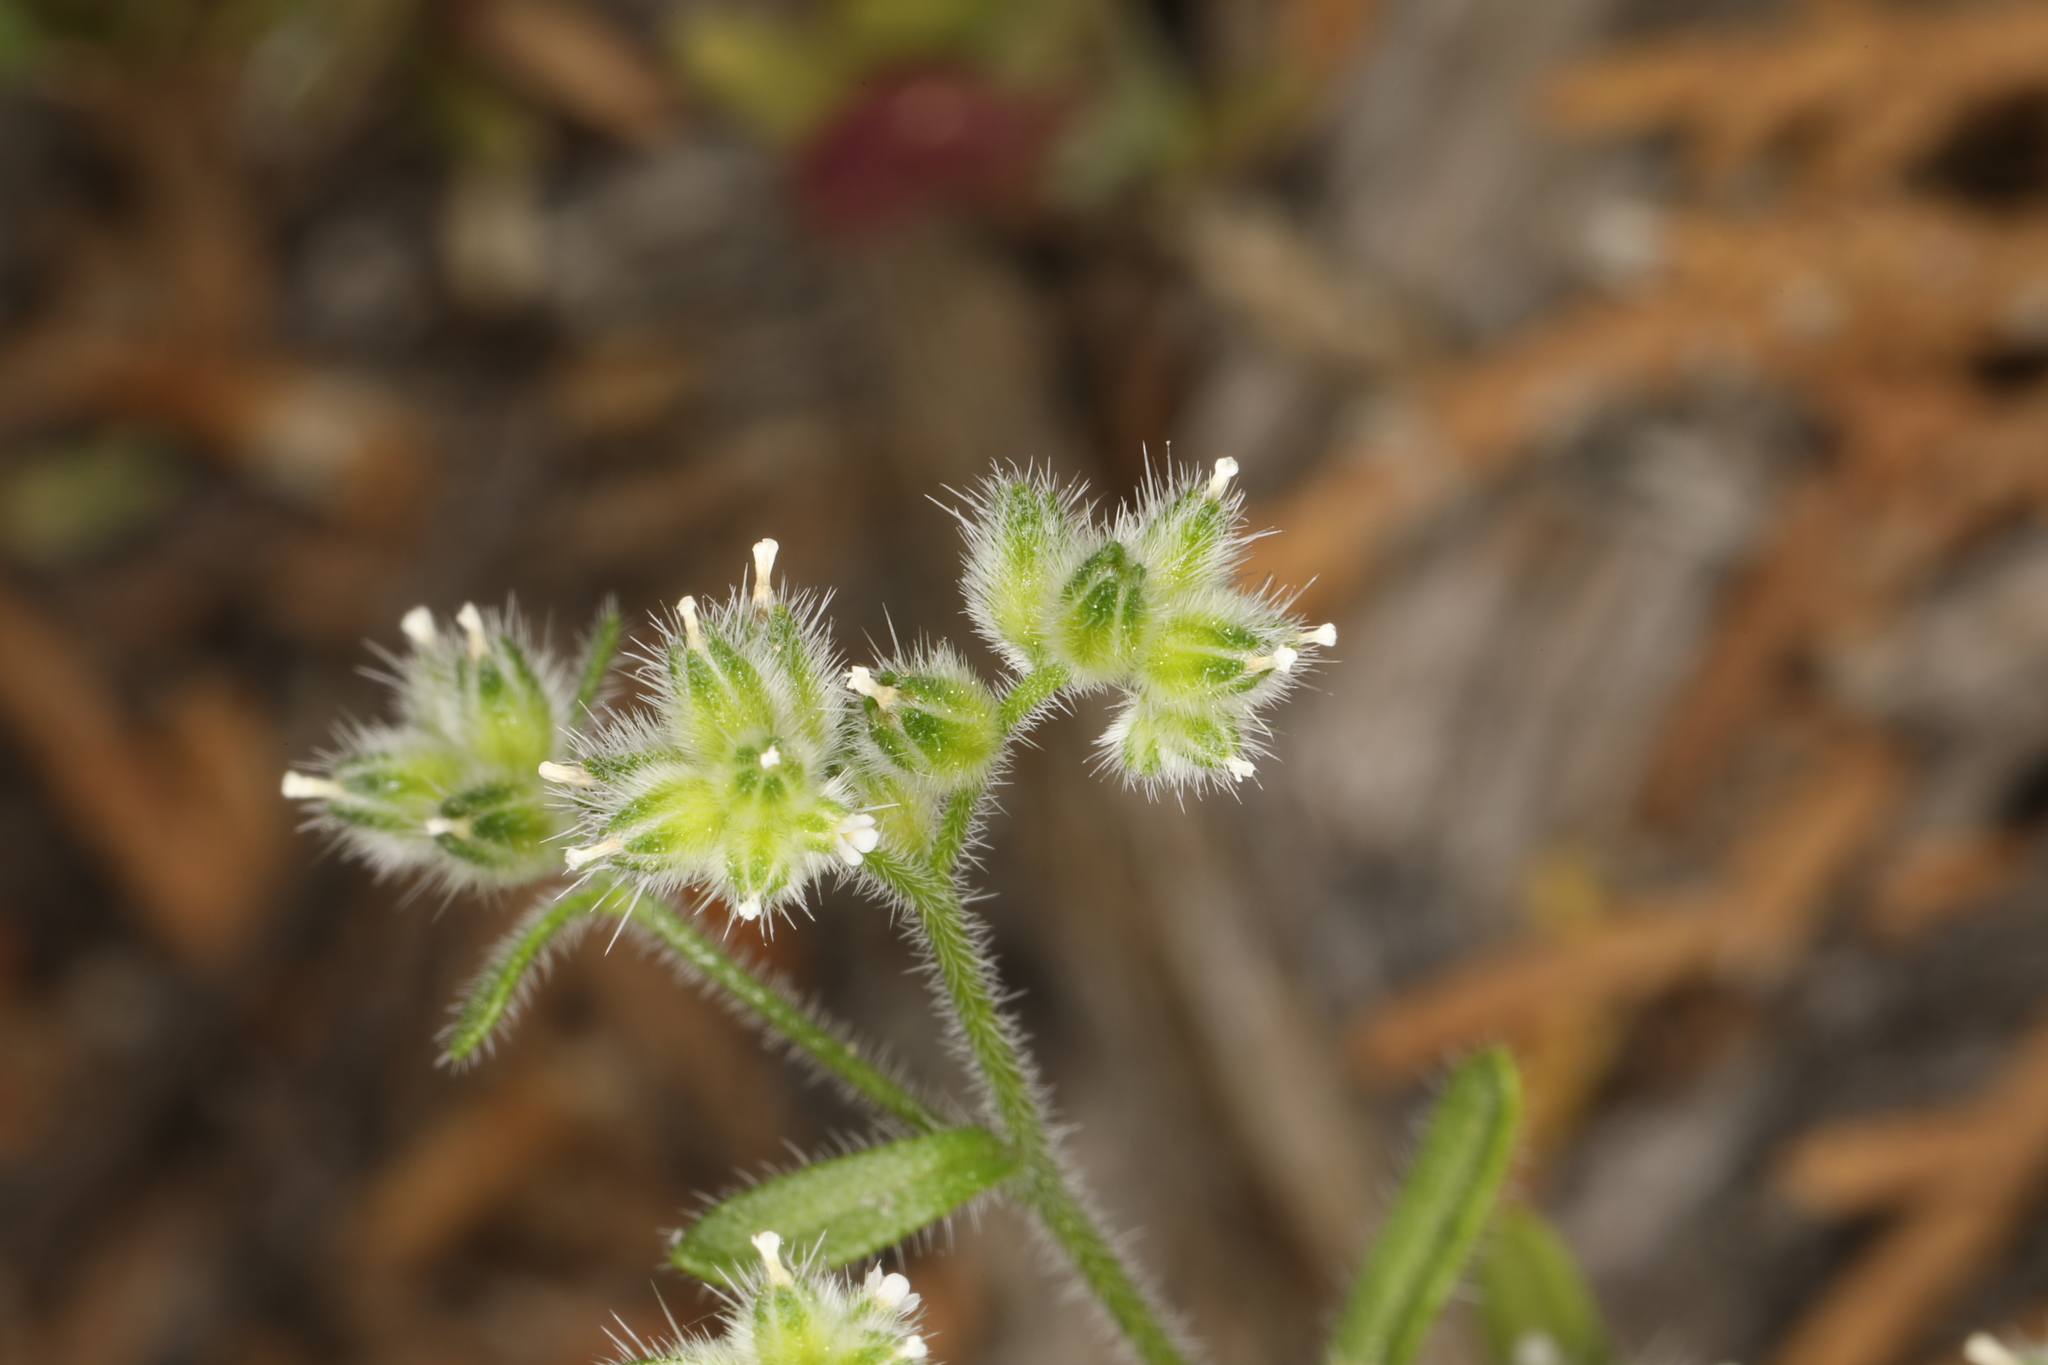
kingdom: Plantae
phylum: Tracheophyta
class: Magnoliopsida
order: Boraginales
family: Boraginaceae
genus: Cryptantha
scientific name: Cryptantha gracilis
